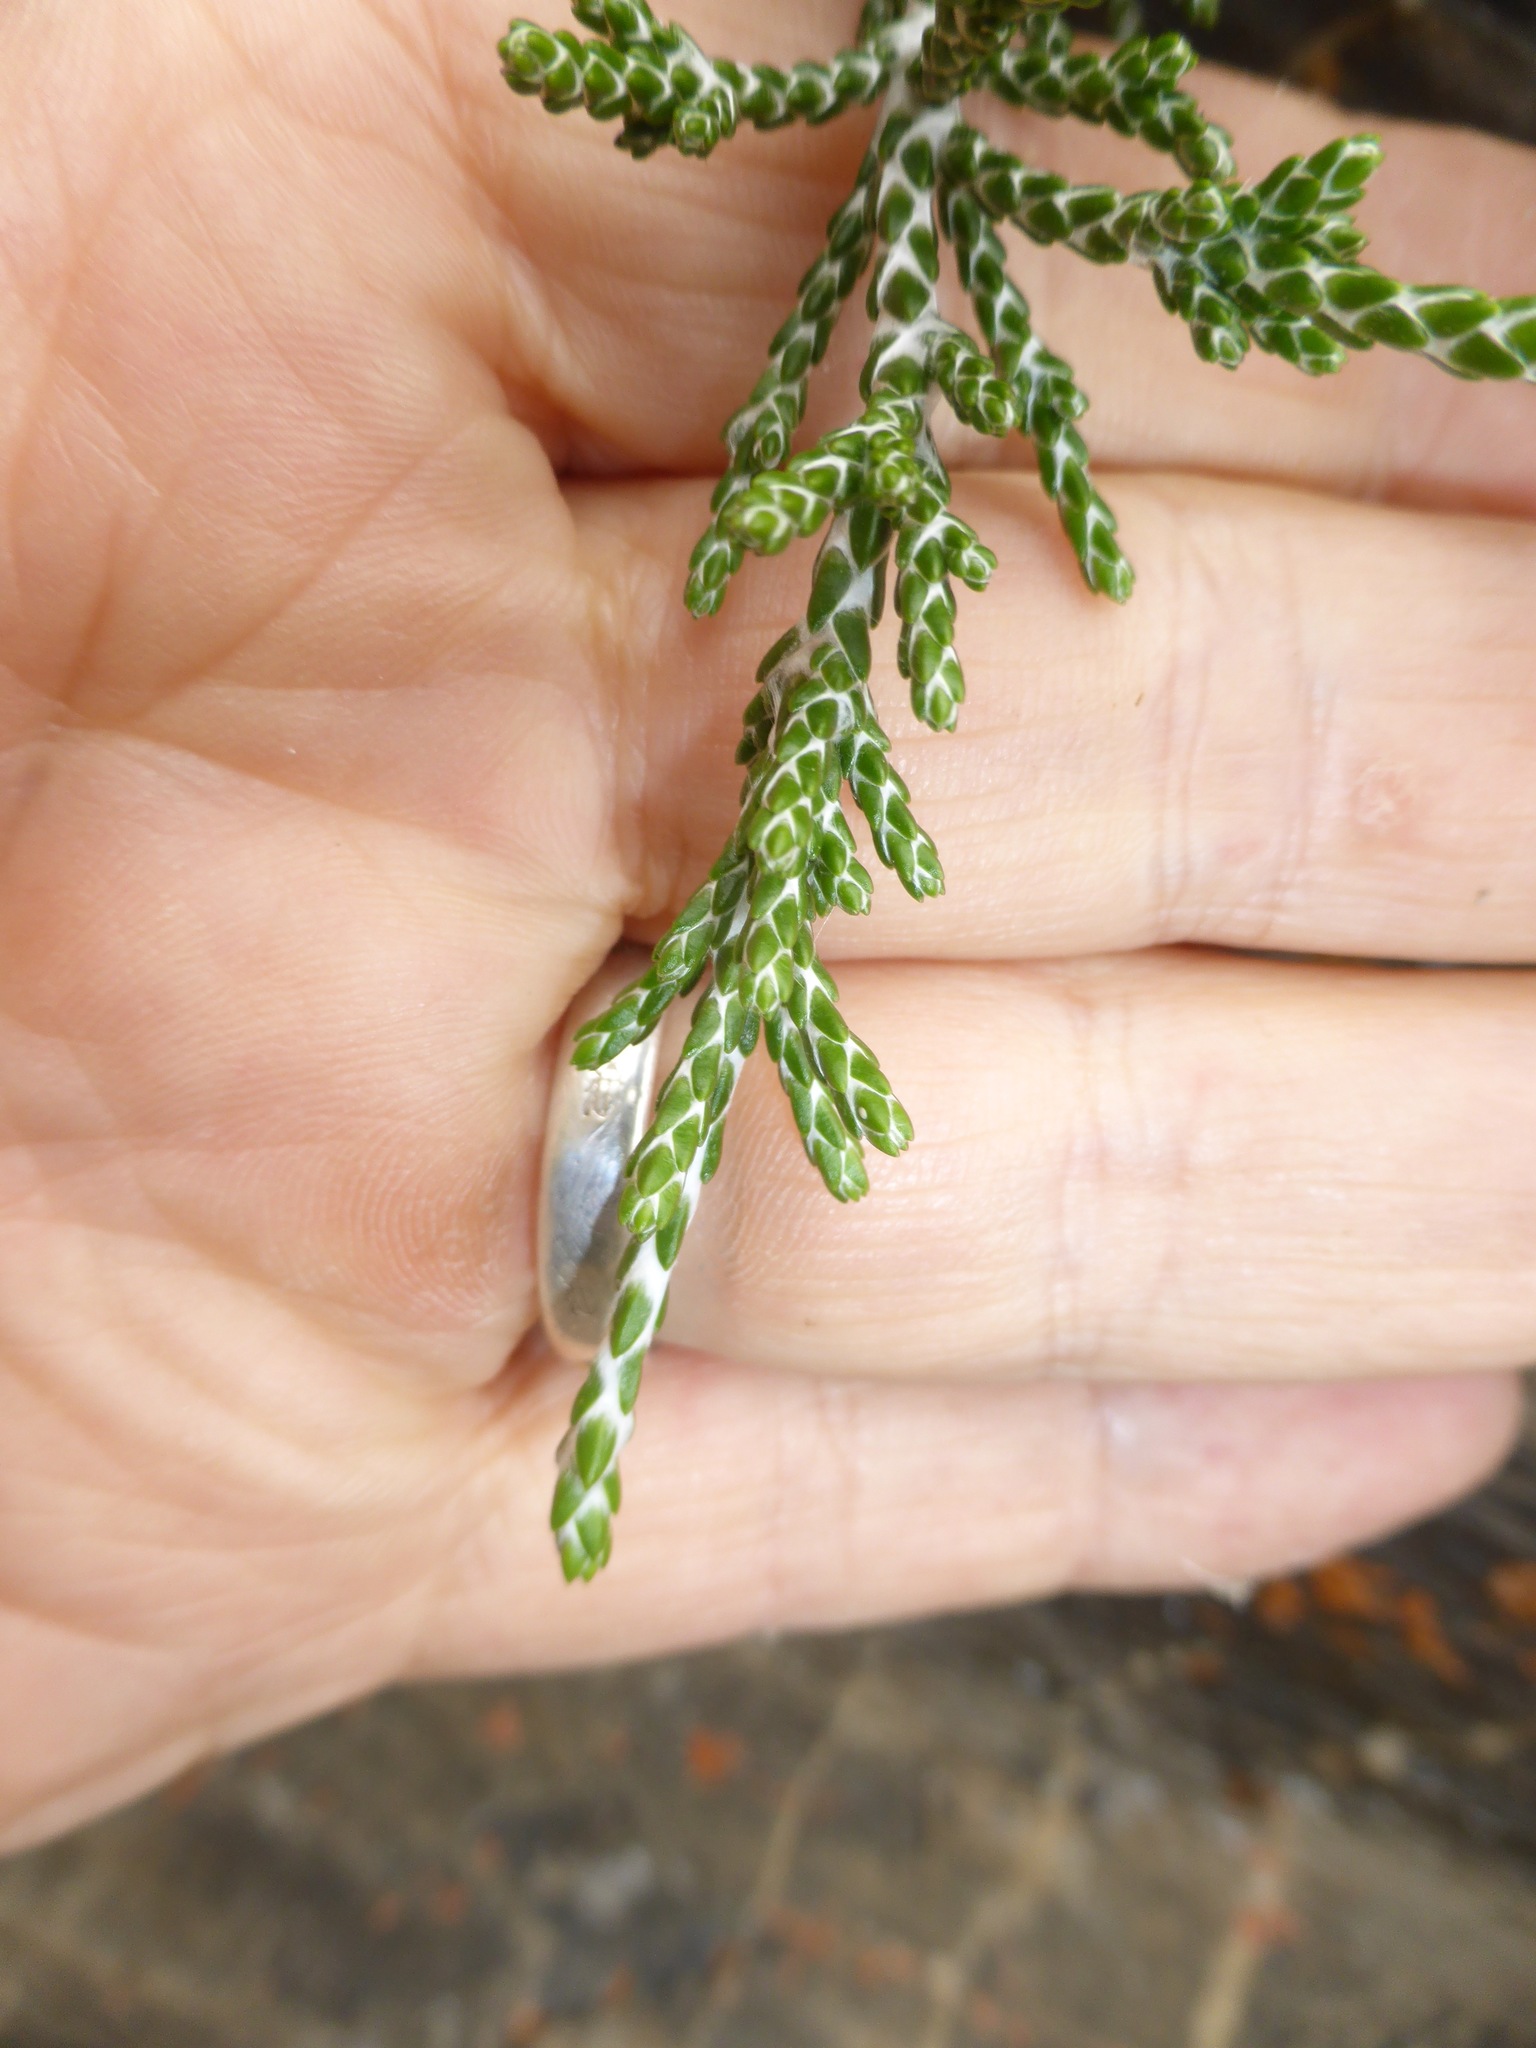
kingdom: Plantae
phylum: Tracheophyta
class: Magnoliopsida
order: Asterales
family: Asteraceae
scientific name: Asteraceae
